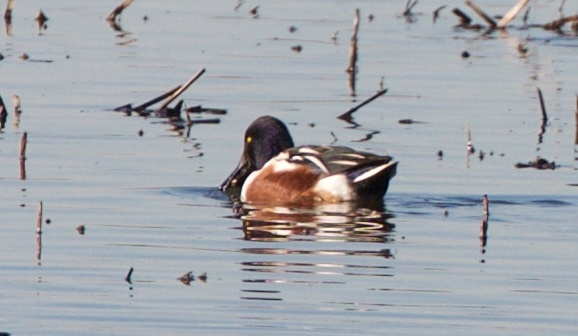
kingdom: Animalia
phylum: Chordata
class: Aves
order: Anseriformes
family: Anatidae
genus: Spatula
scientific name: Spatula clypeata
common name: Northern shoveler
